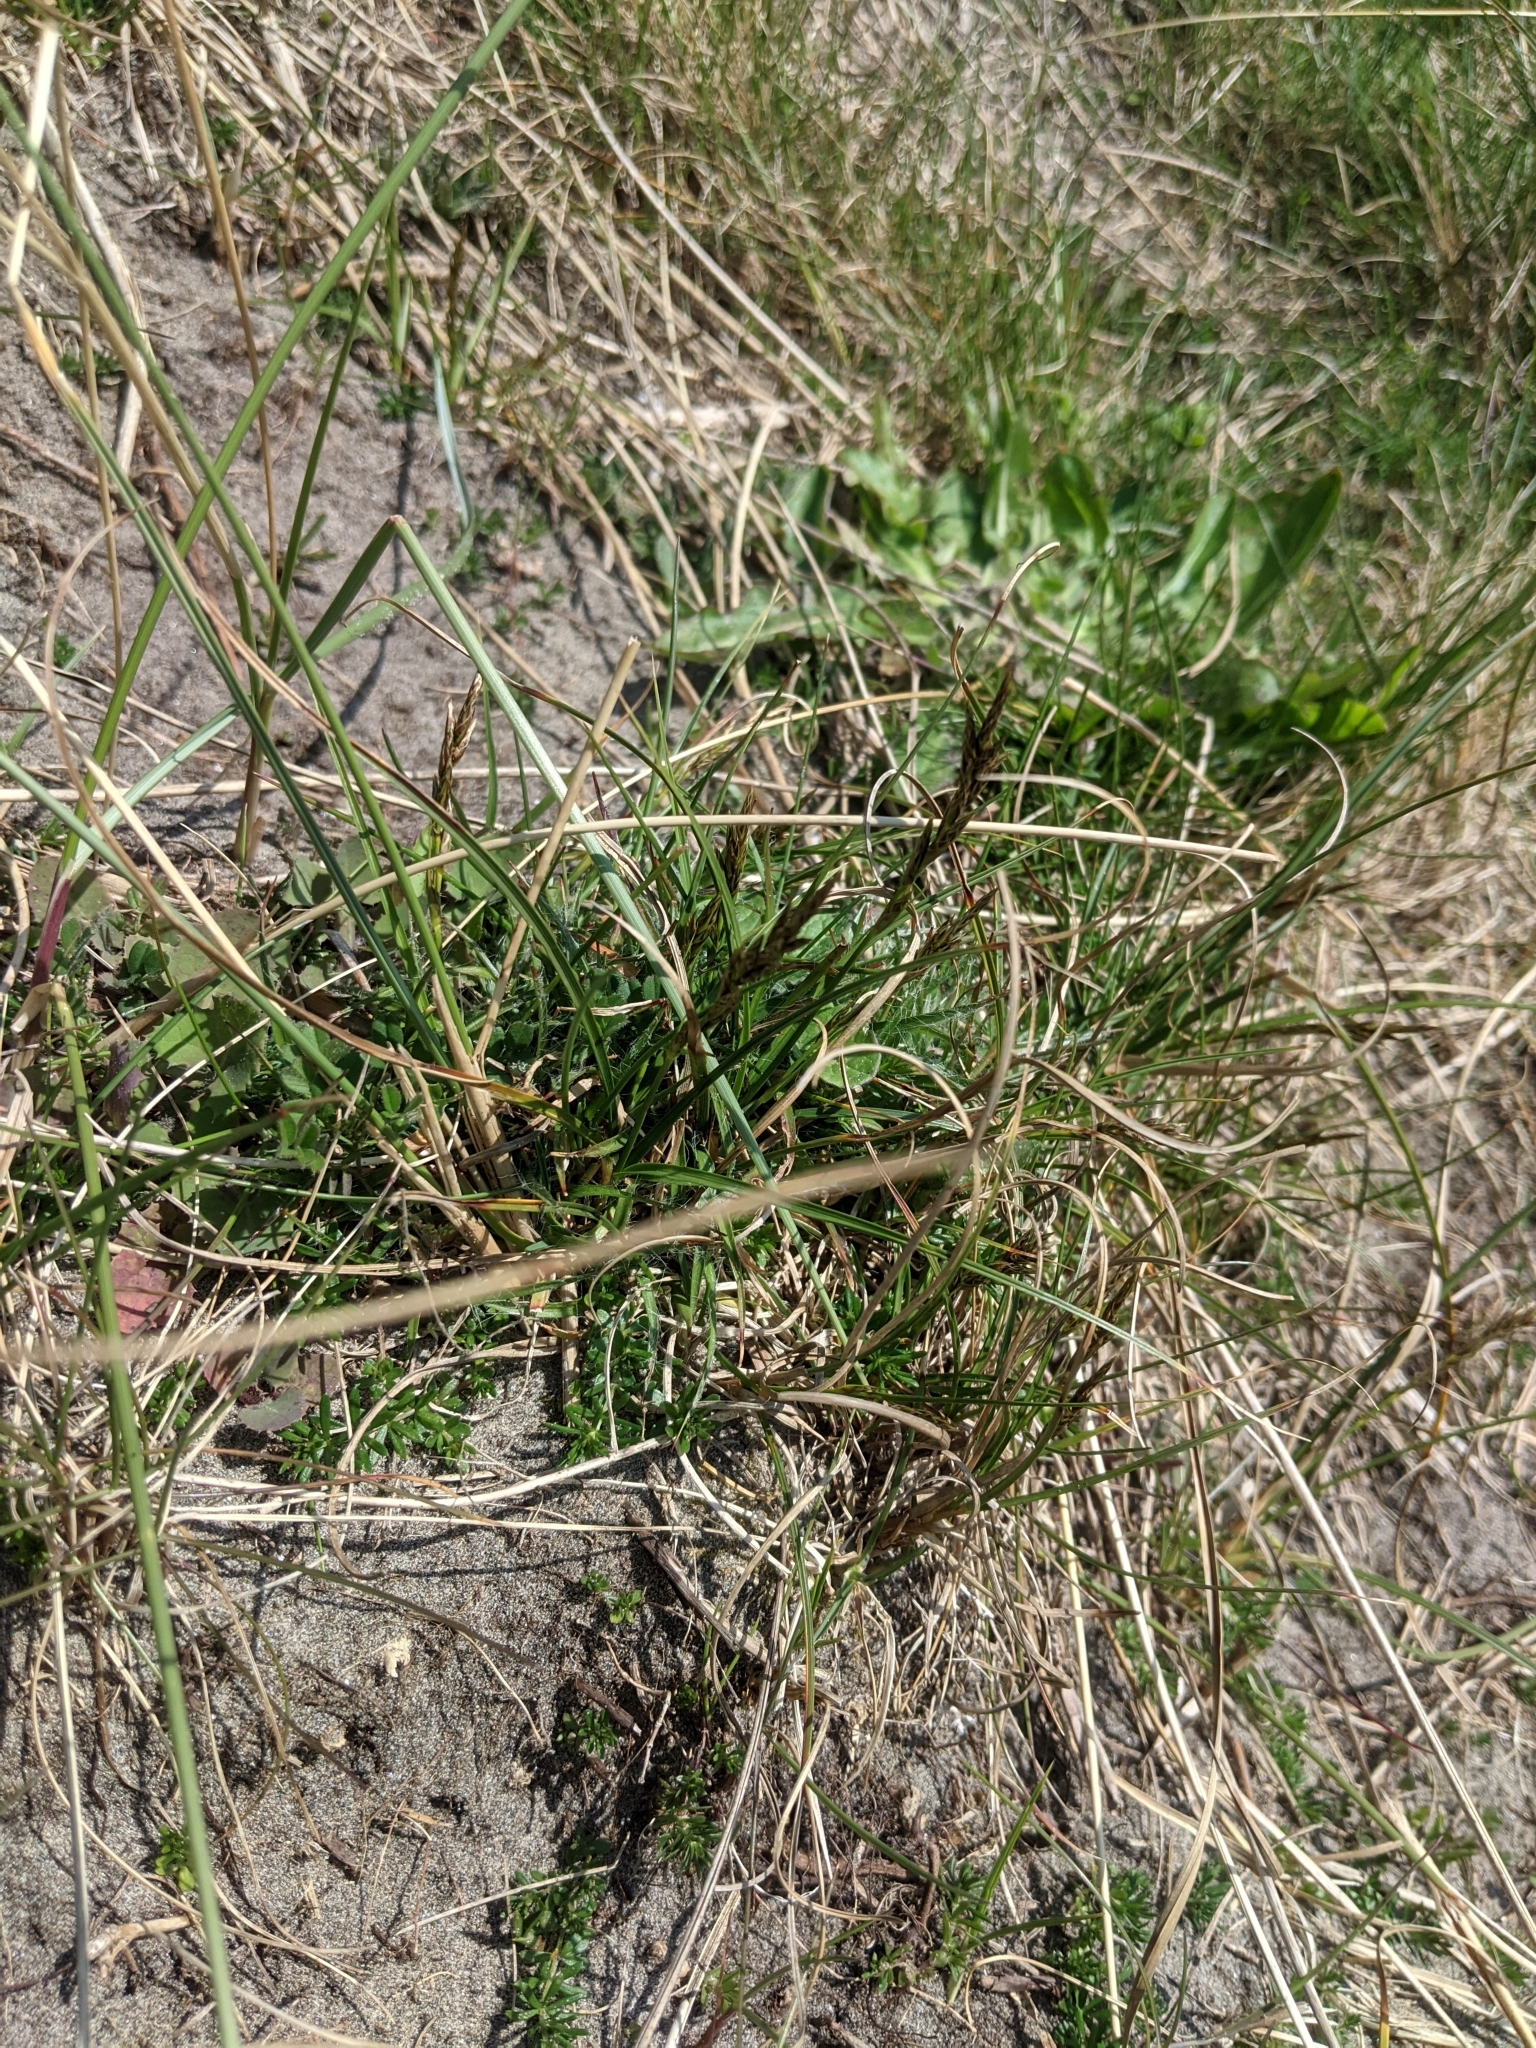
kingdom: Plantae
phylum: Tracheophyta
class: Liliopsida
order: Poales
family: Cyperaceae
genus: Carex
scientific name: Carex arenaria
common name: Sand sedge
